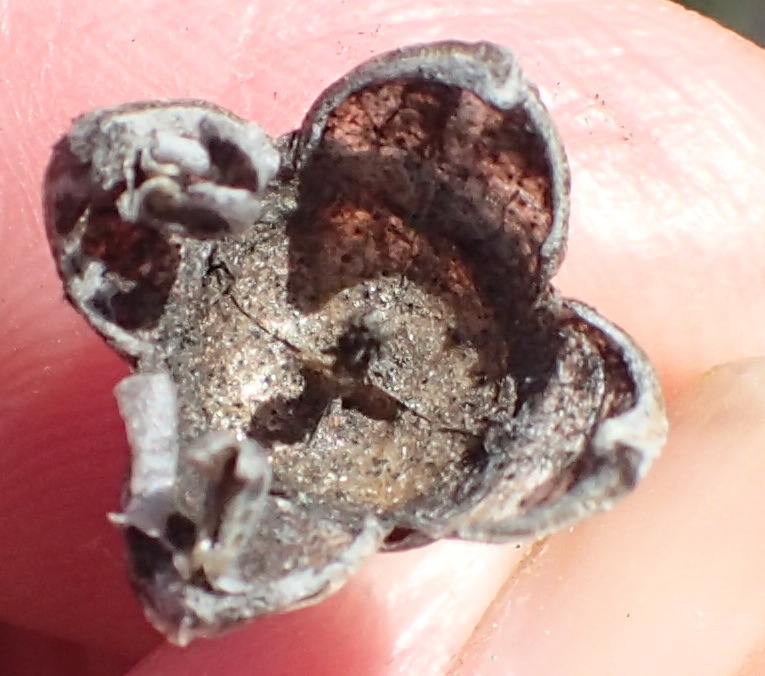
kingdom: Plantae
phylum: Tracheophyta
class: Magnoliopsida
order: Caryophyllales
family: Aizoaceae
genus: Mesembryanthemum
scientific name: Mesembryanthemum brevicarpum
